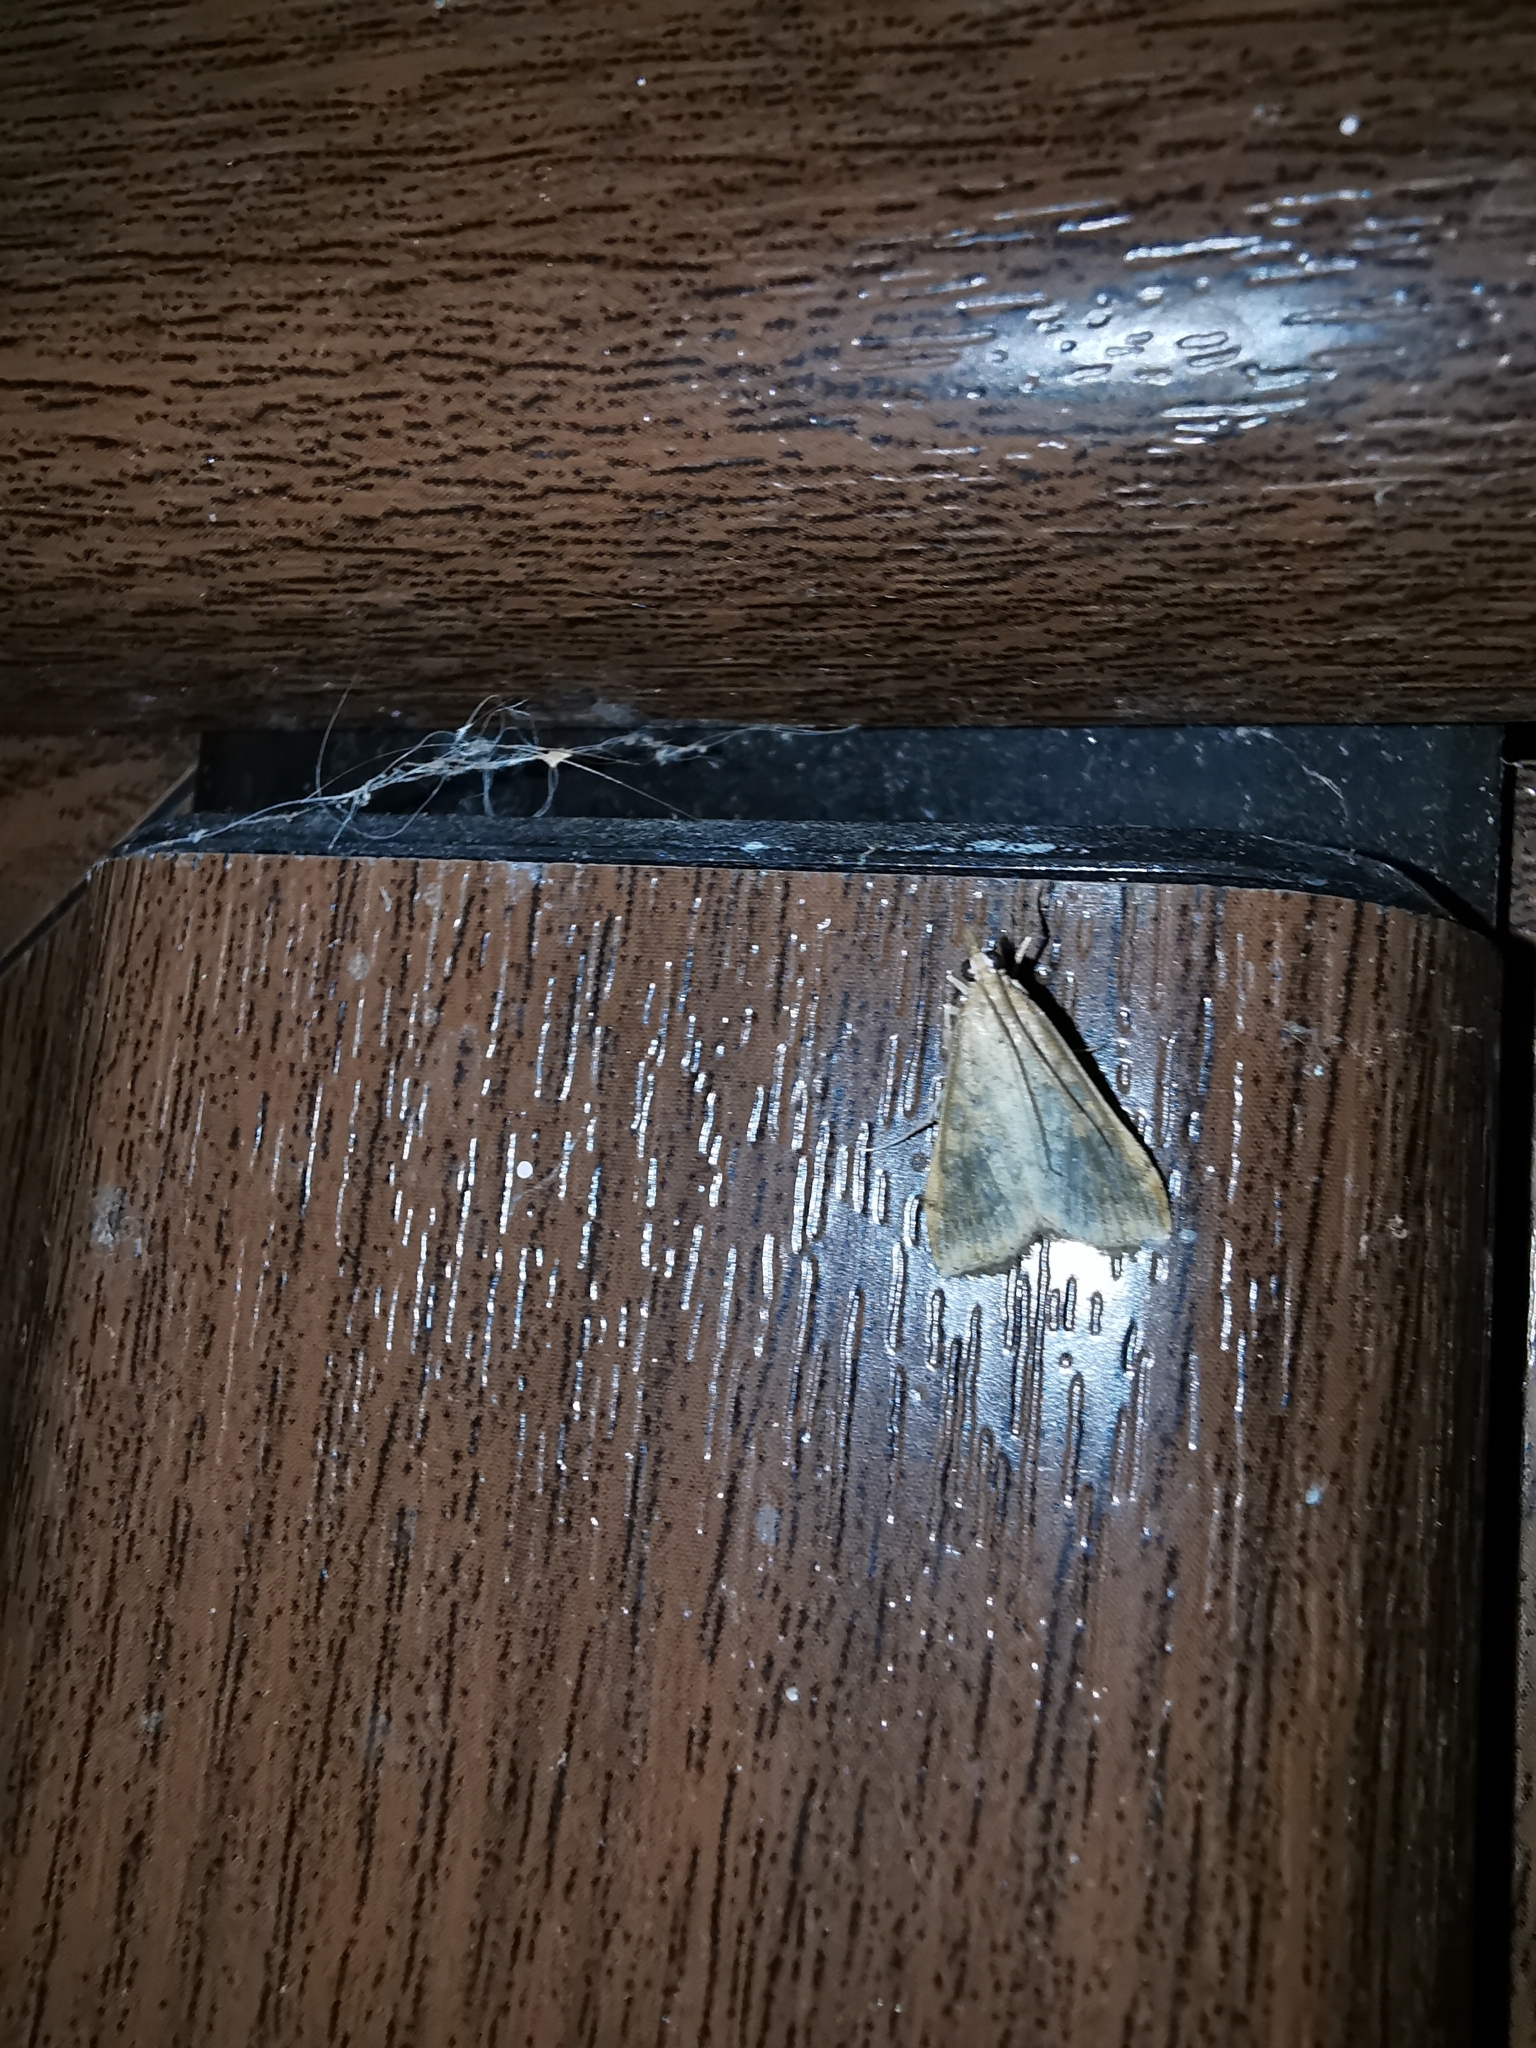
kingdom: Animalia
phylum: Arthropoda
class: Insecta
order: Lepidoptera
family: Crambidae
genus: Udea
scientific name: Udea ferrugalis
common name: Rusty dot
